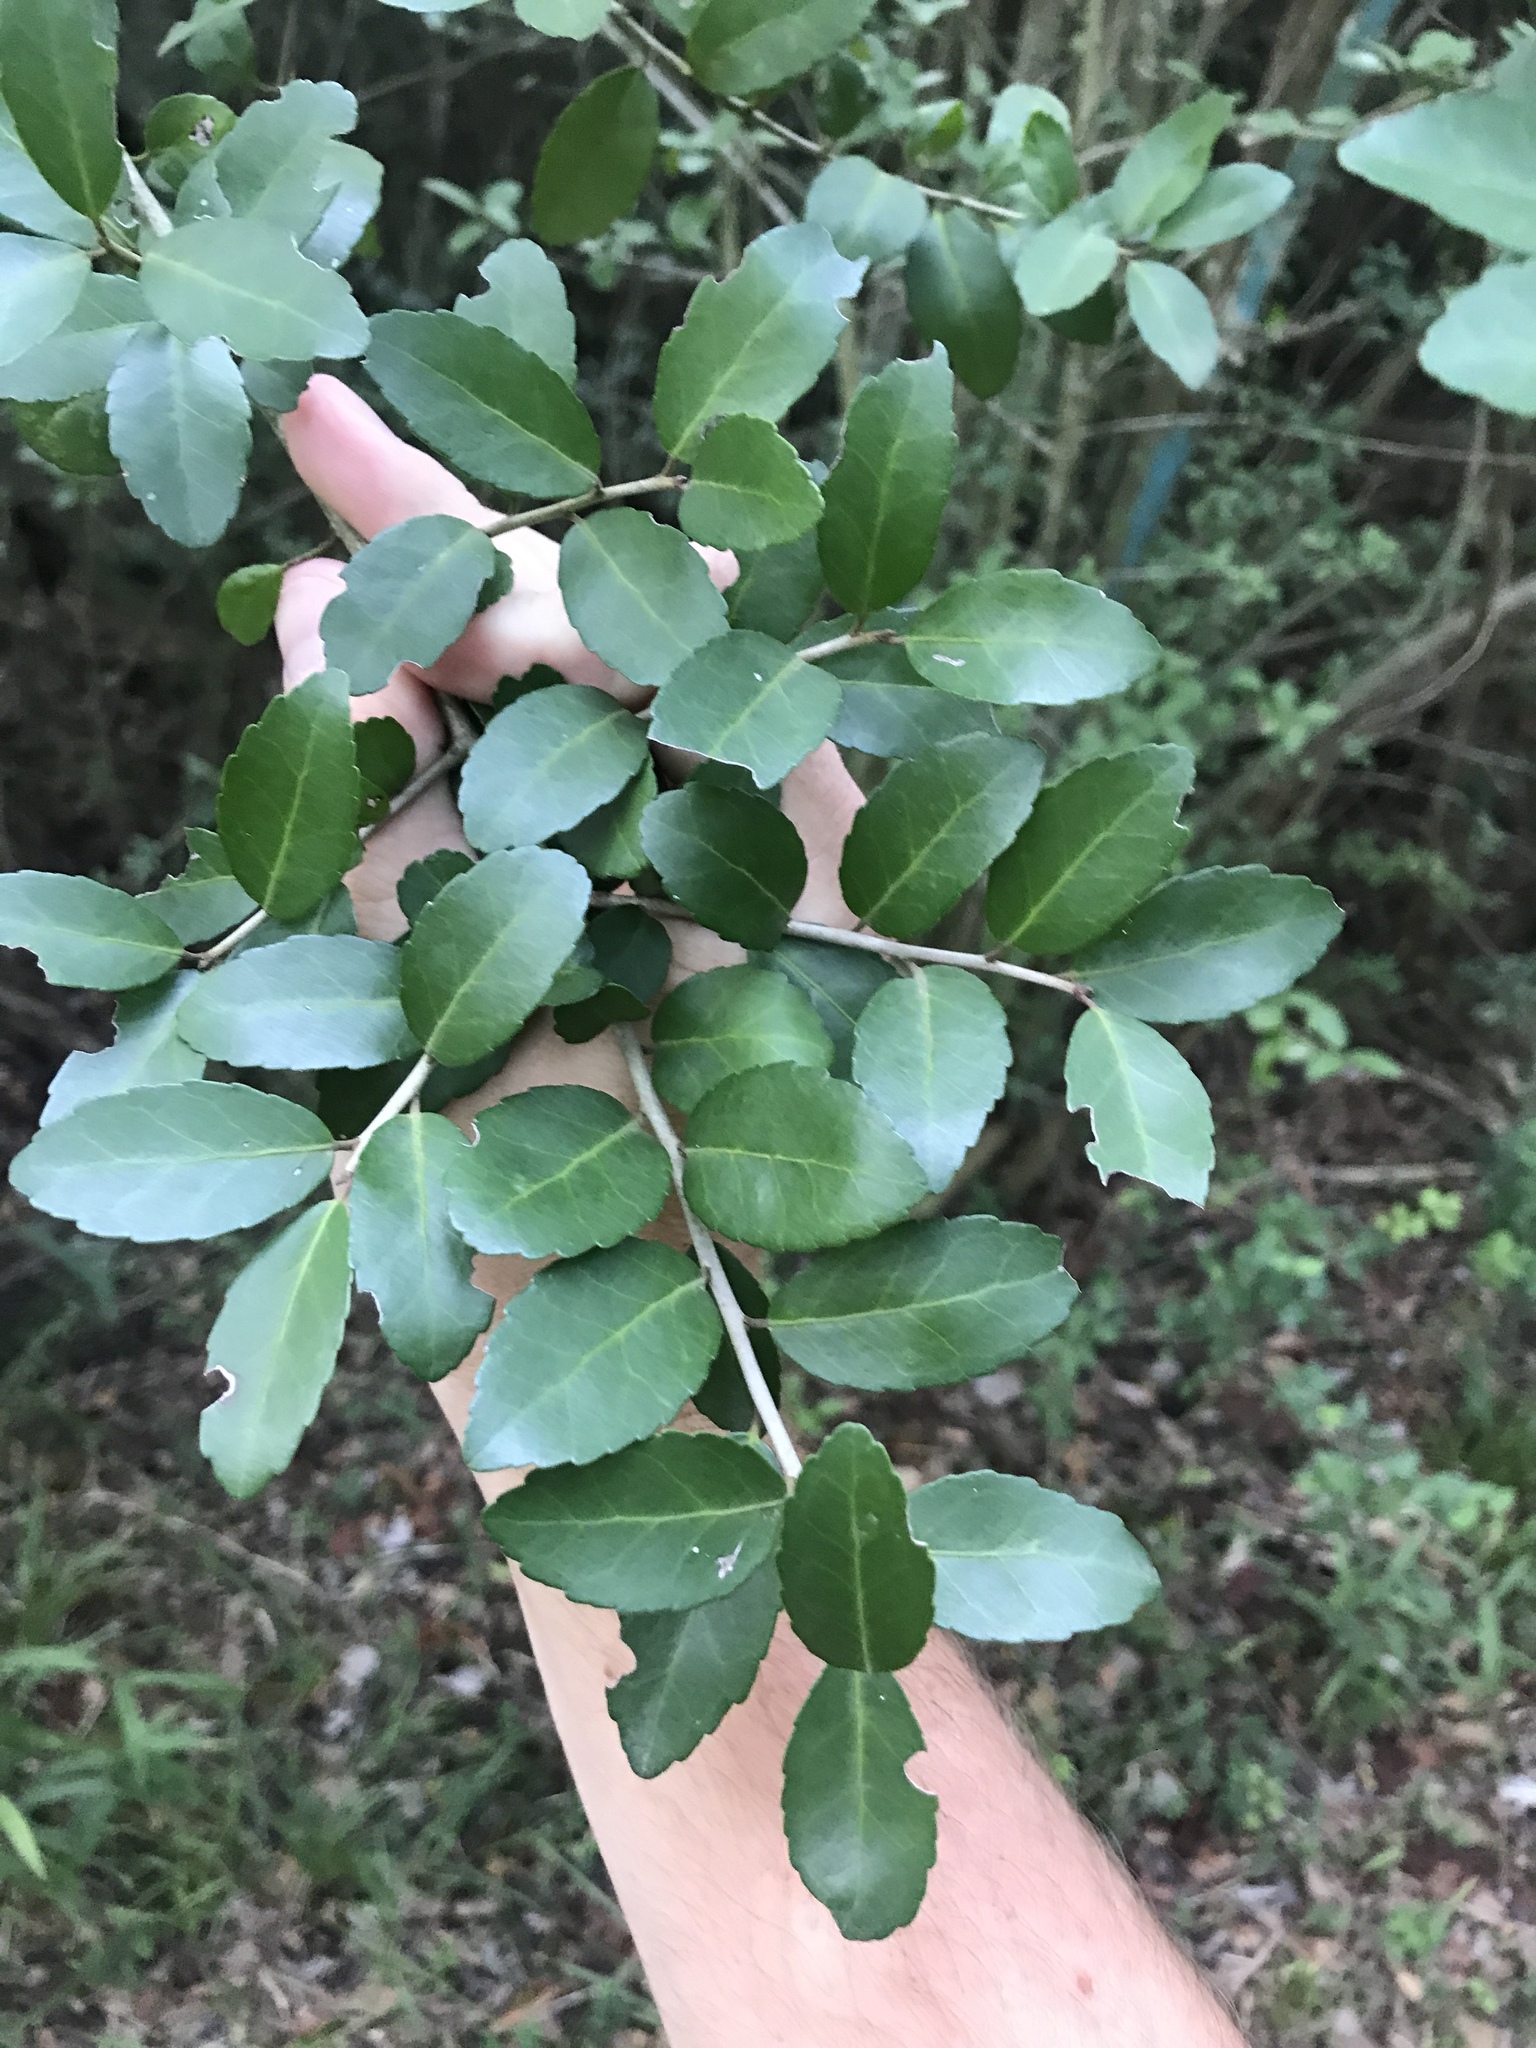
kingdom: Plantae
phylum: Tracheophyta
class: Magnoliopsida
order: Aquifoliales
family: Aquifoliaceae
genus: Ilex
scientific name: Ilex vomitoria
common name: Yaupon holly
